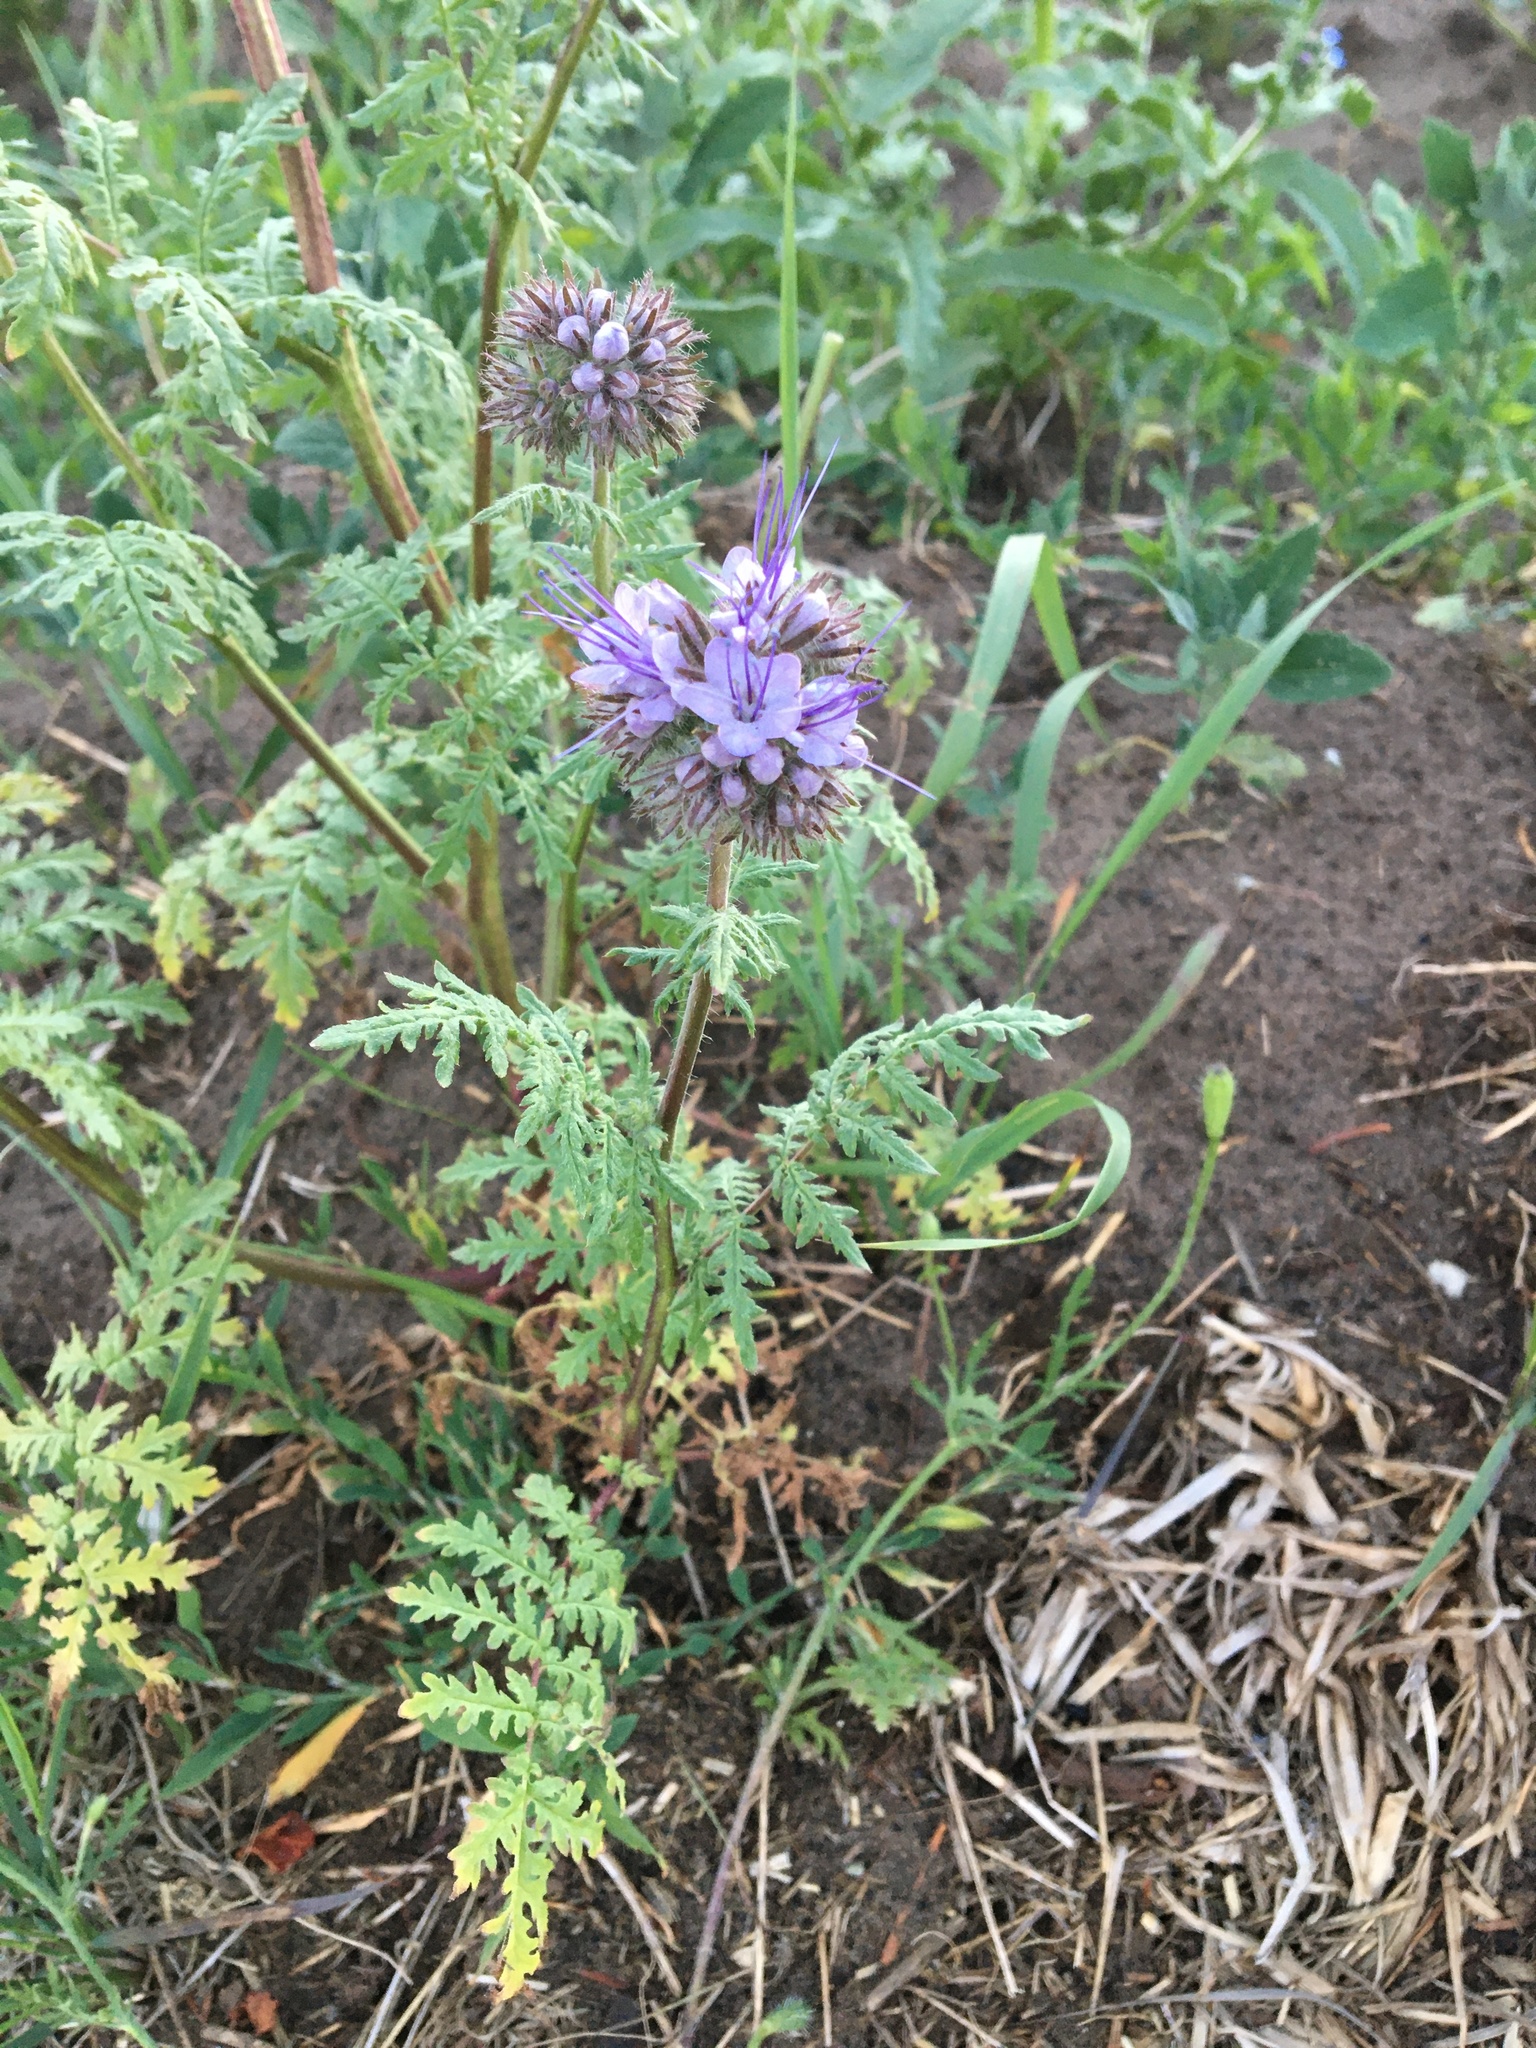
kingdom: Plantae
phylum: Tracheophyta
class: Magnoliopsida
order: Boraginales
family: Hydrophyllaceae
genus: Phacelia
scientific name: Phacelia tanacetifolia
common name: Phacelia
